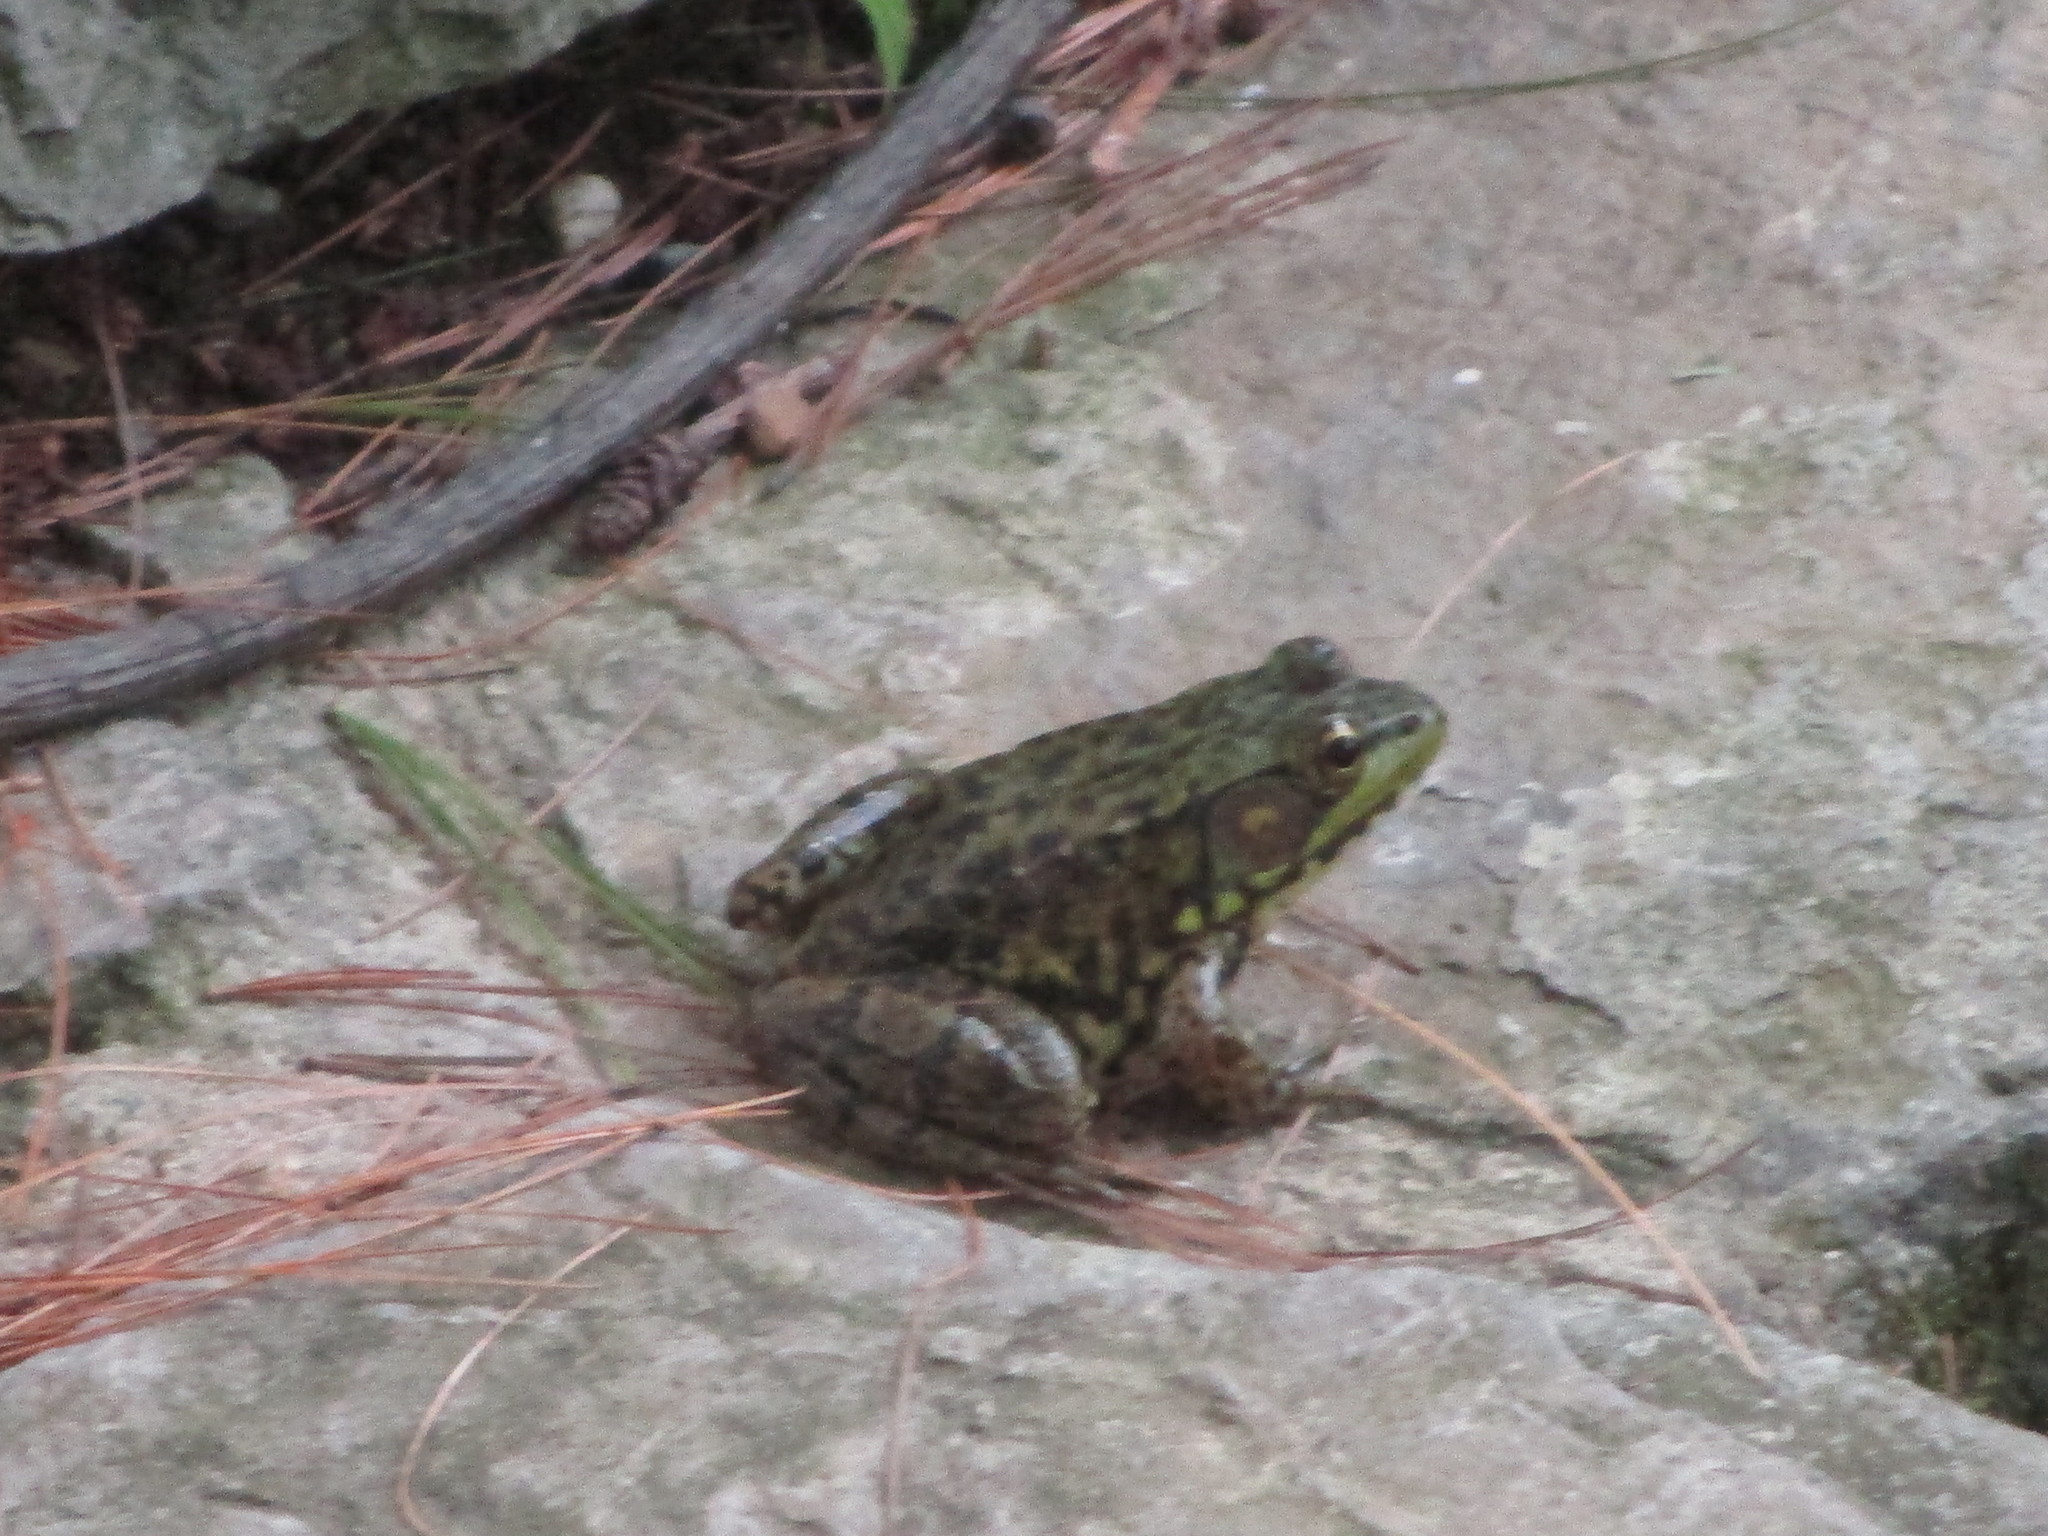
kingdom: Animalia
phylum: Chordata
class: Amphibia
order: Anura
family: Ranidae
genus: Lithobates
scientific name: Lithobates clamitans
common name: Green frog
